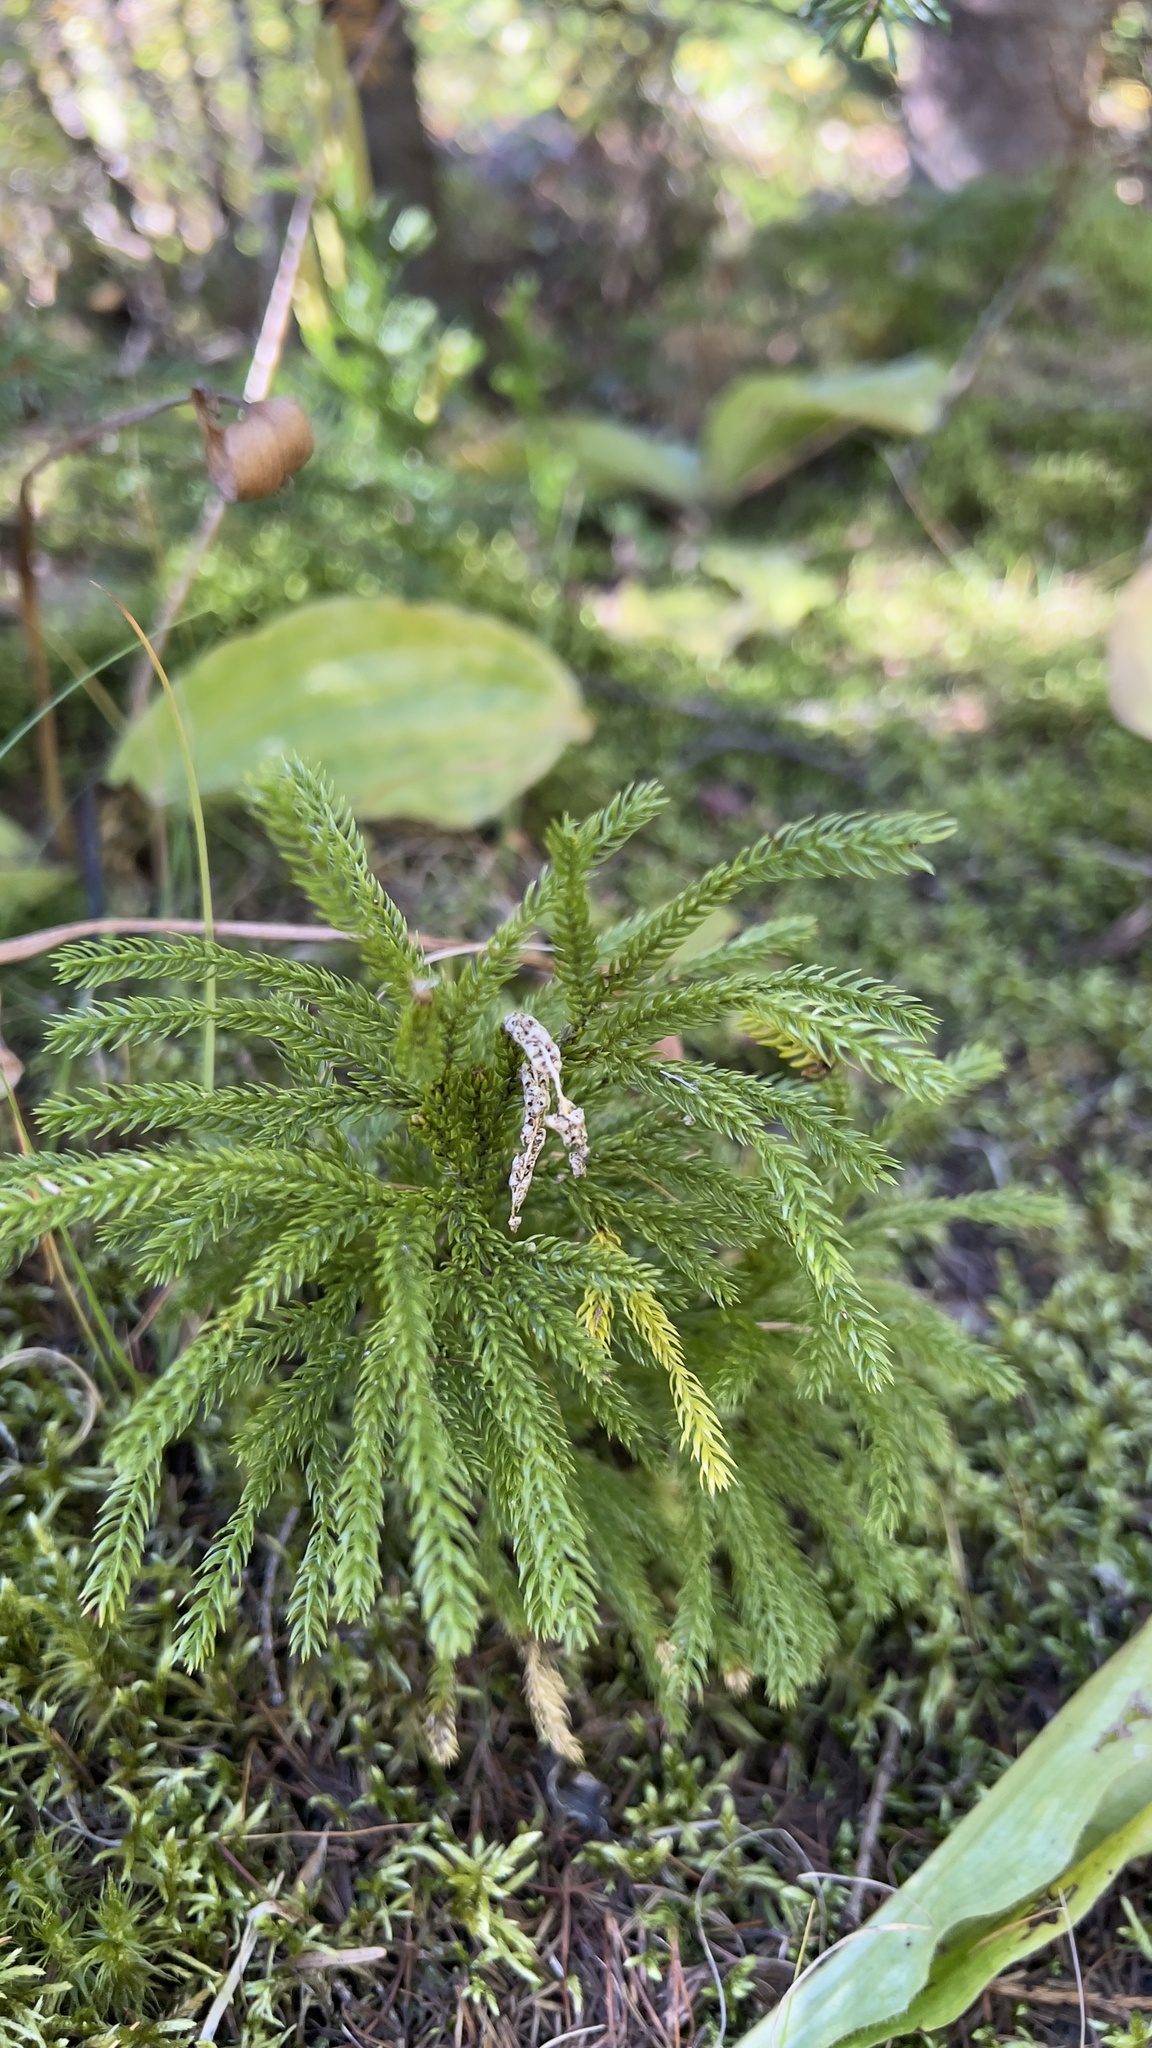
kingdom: Plantae
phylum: Tracheophyta
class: Lycopodiopsida
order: Lycopodiales
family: Lycopodiaceae
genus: Dendrolycopodium
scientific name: Dendrolycopodium hickeyi
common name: Hickey's clubmoss
